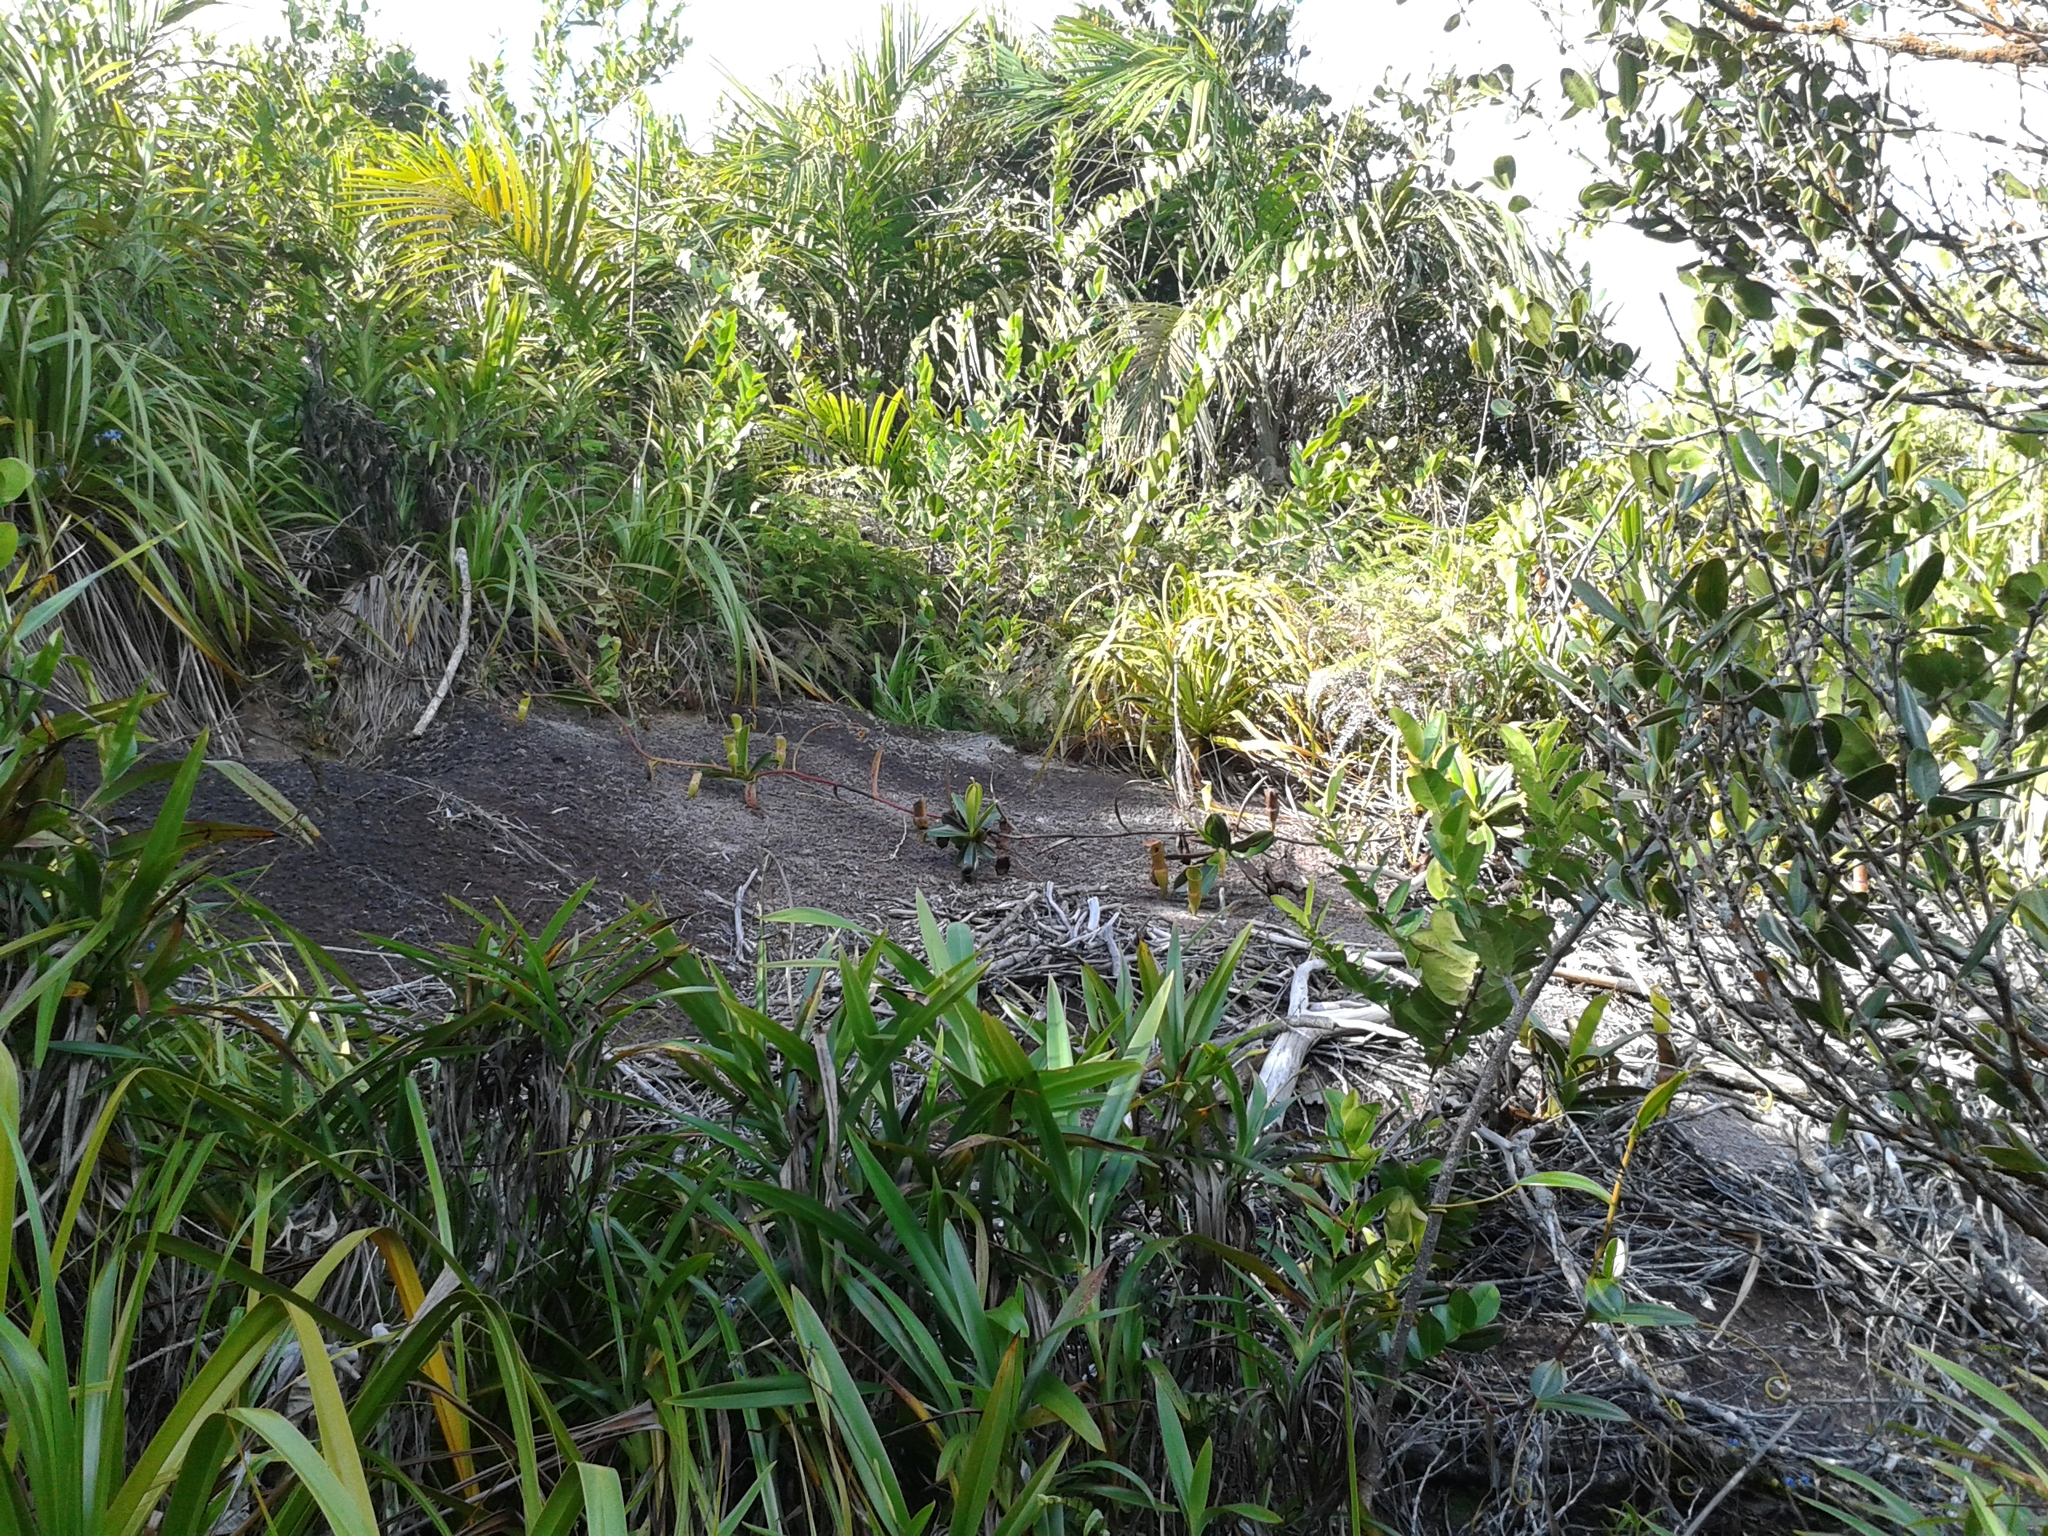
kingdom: Plantae
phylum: Tracheophyta
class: Magnoliopsida
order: Caryophyllales
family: Nepenthaceae
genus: Nepenthes
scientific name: Nepenthes pervillei
